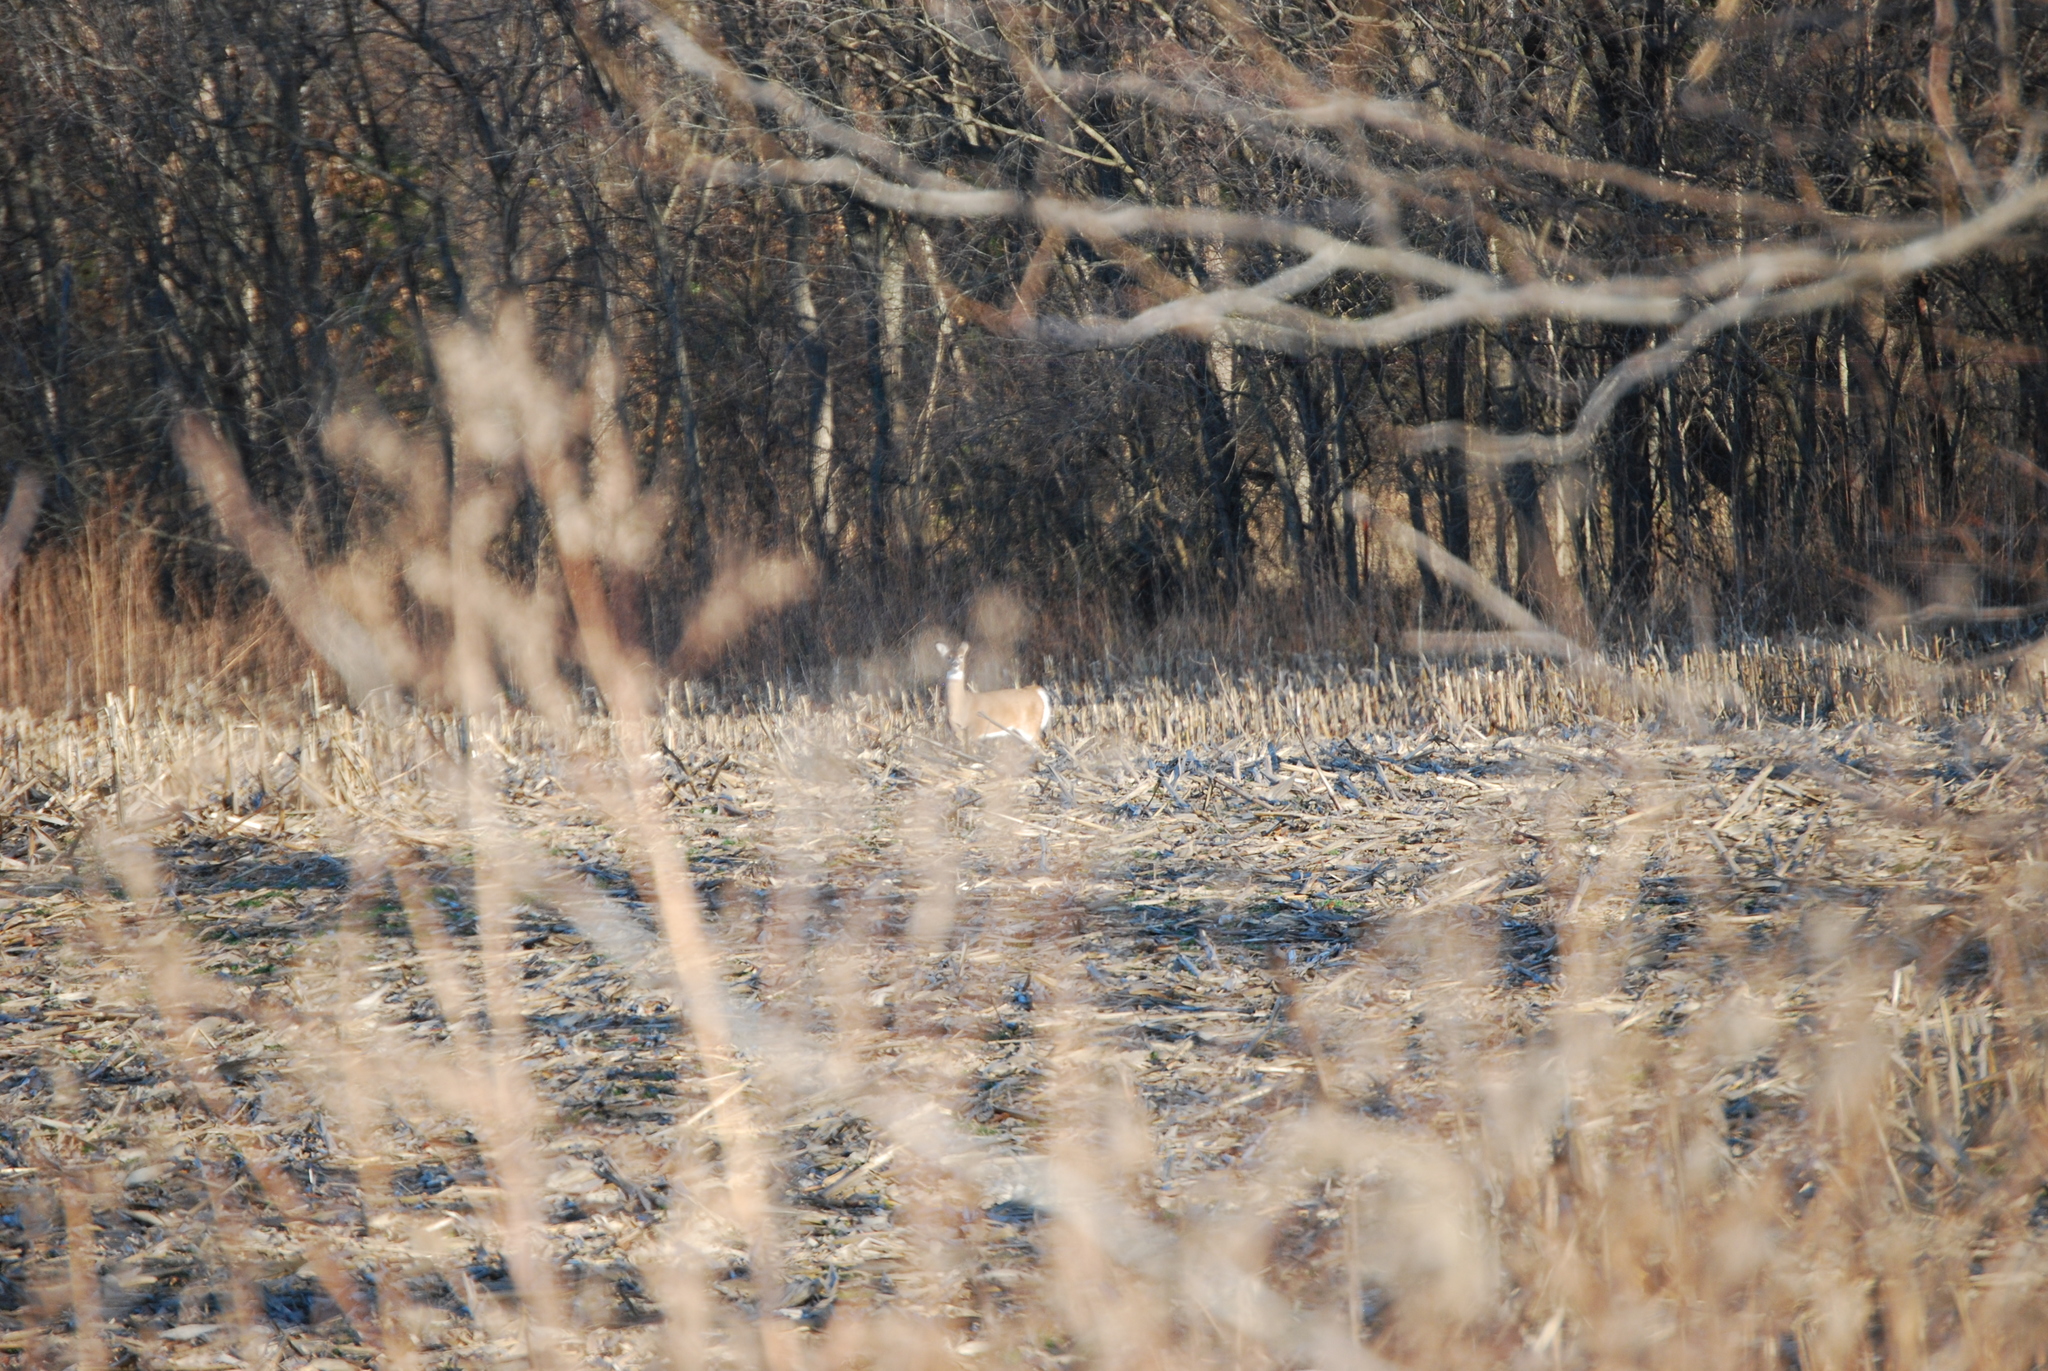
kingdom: Animalia
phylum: Chordata
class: Mammalia
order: Artiodactyla
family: Cervidae
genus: Odocoileus
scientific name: Odocoileus virginianus
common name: White-tailed deer
